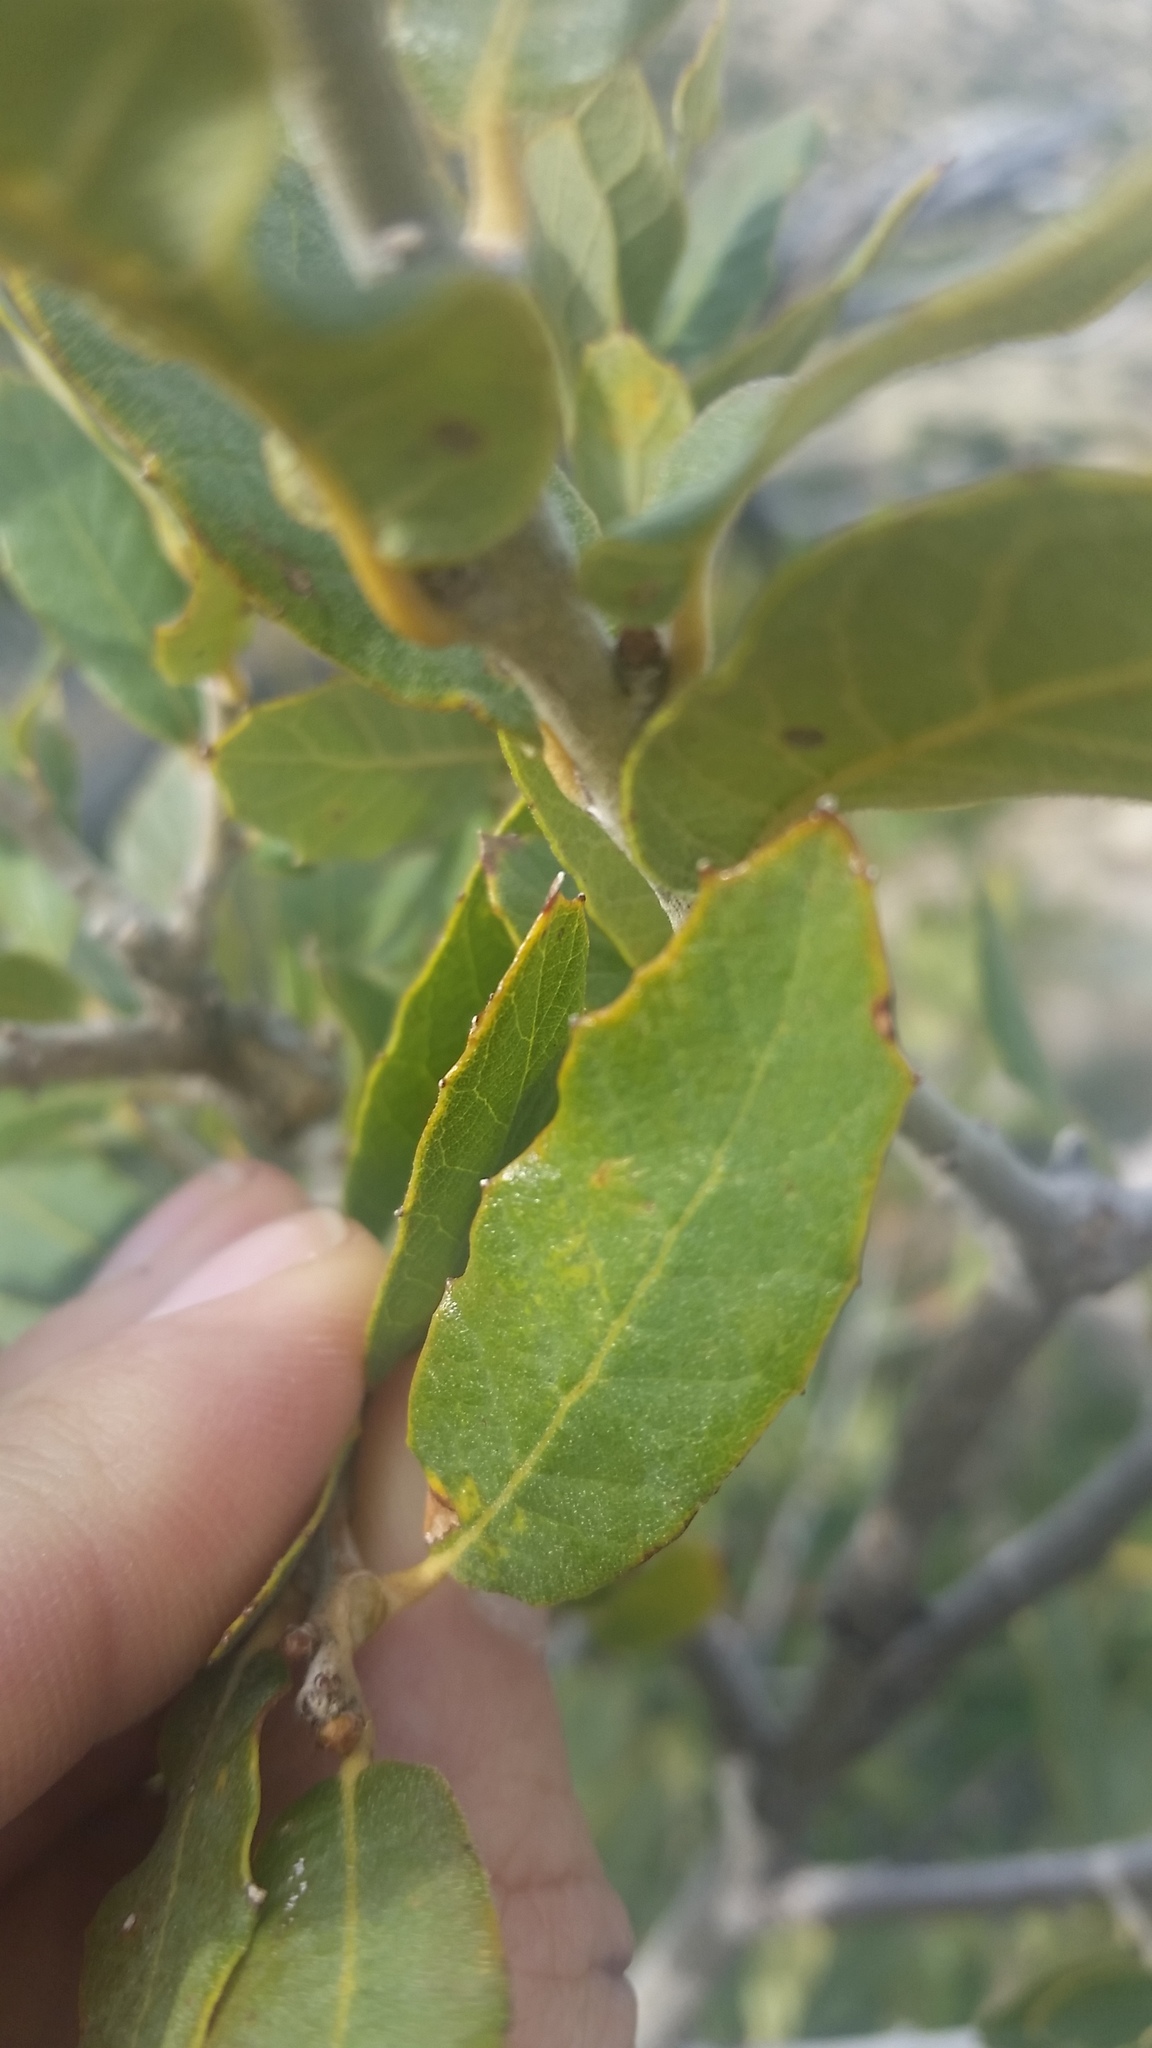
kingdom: Plantae
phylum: Tracheophyta
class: Magnoliopsida
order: Fagales
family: Fagaceae
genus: Quercus
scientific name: Quercus emoryi
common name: Emory oak
